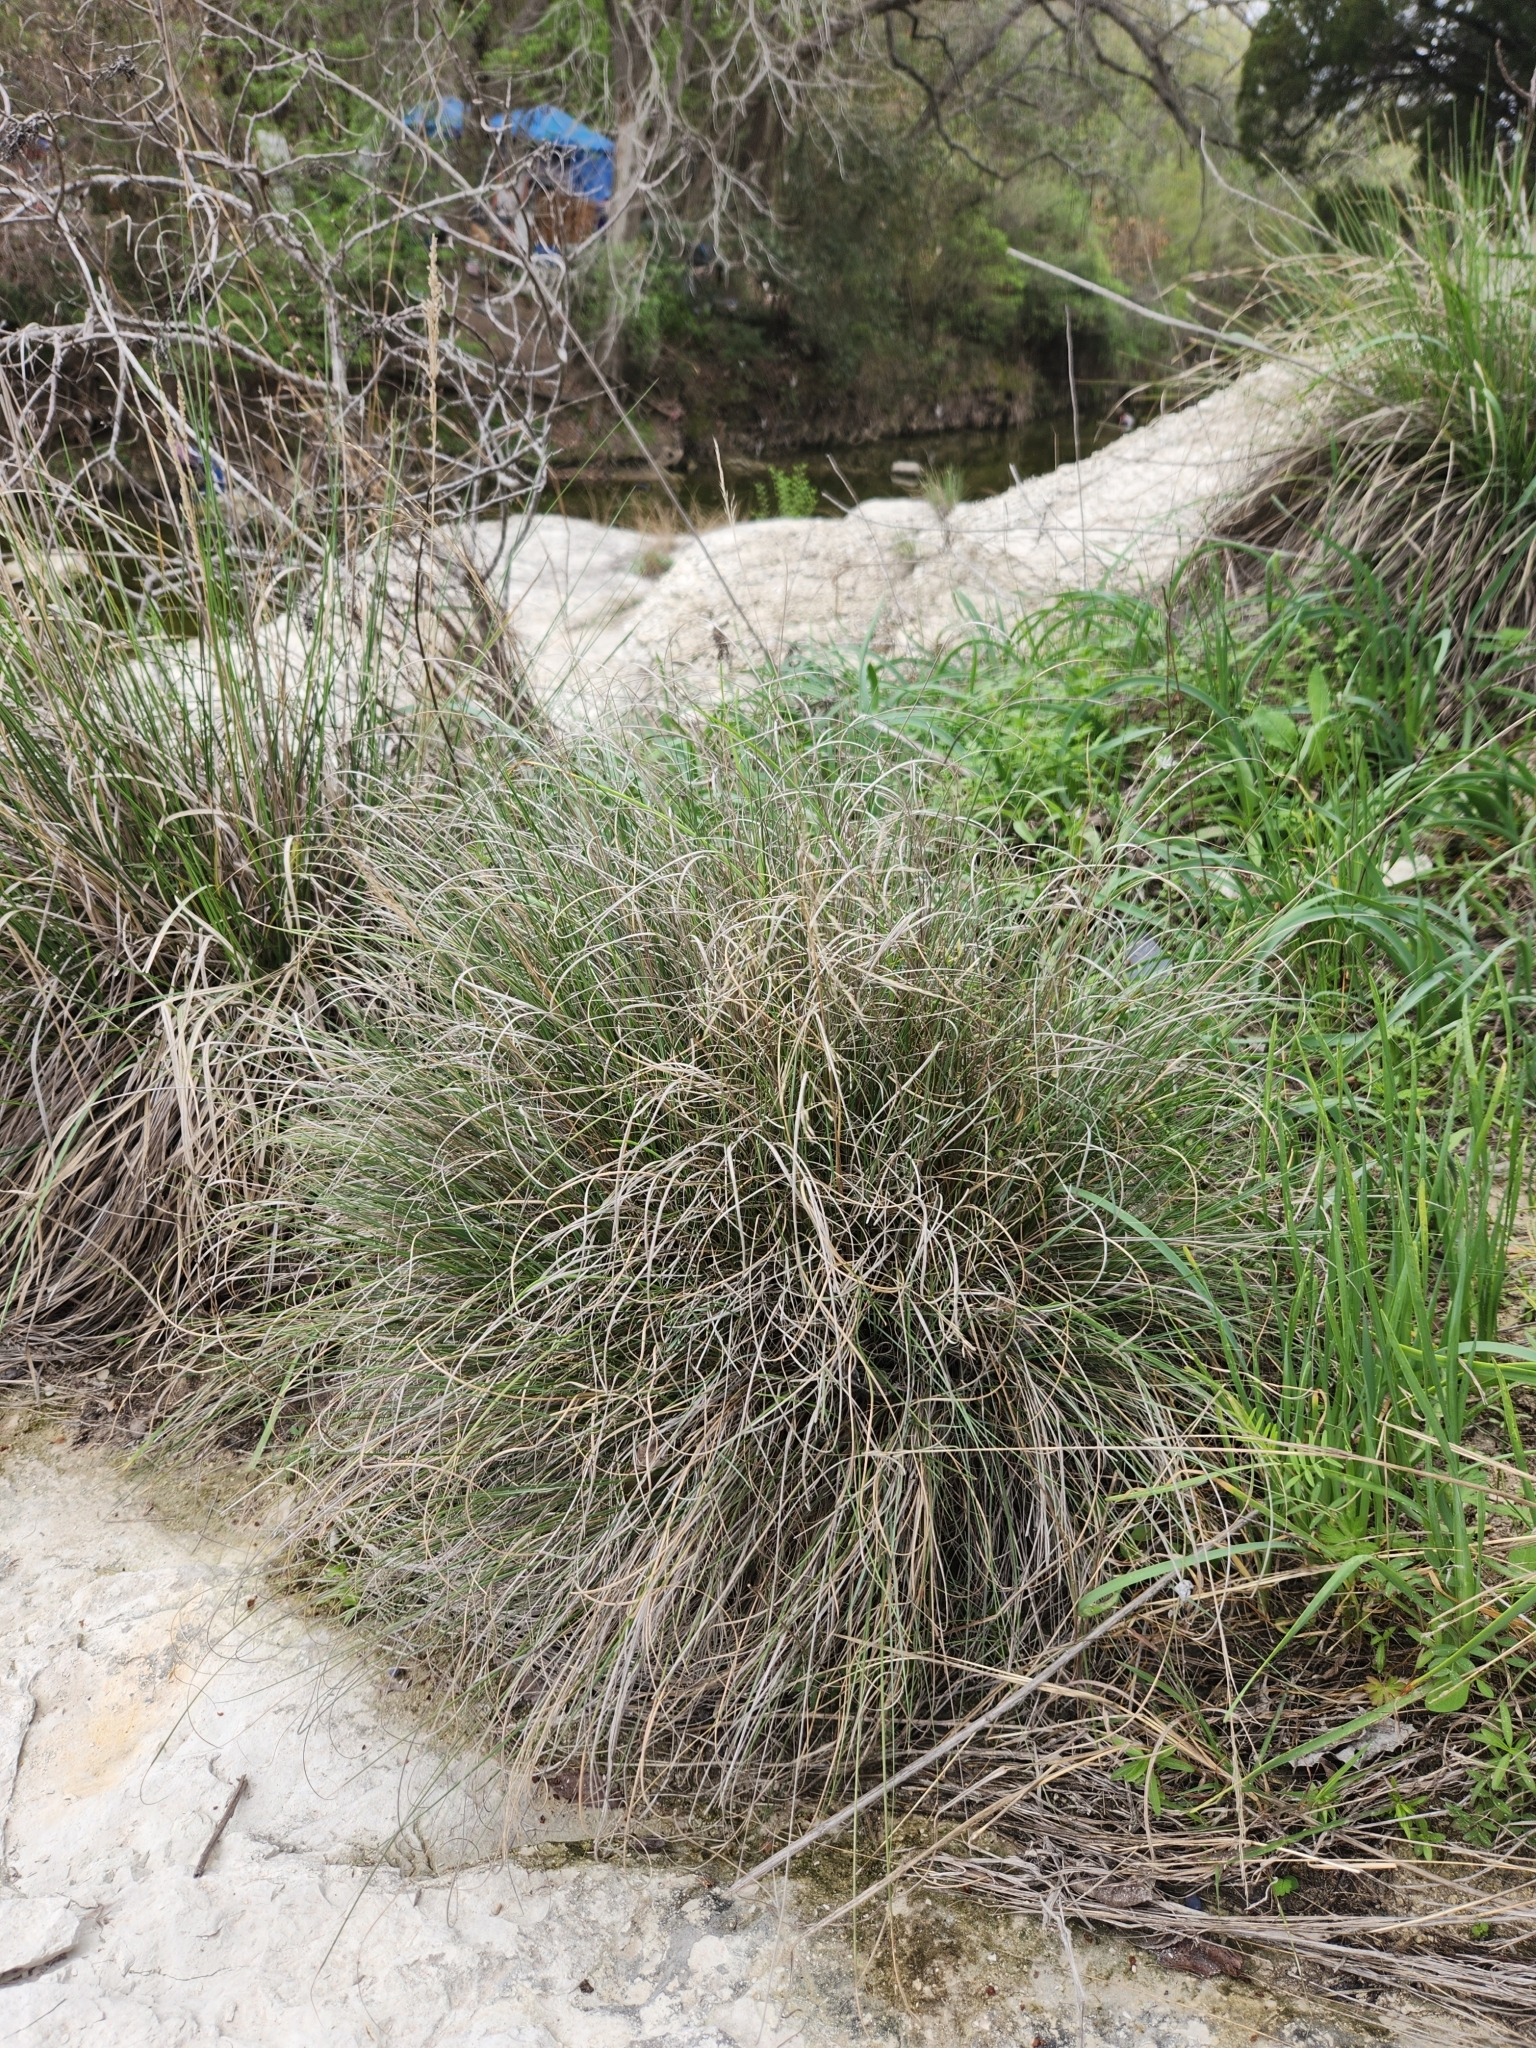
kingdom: Plantae
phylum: Tracheophyta
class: Liliopsida
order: Poales
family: Poaceae
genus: Muhlenbergia
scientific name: Muhlenbergia reverchonii
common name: Seep muhly
